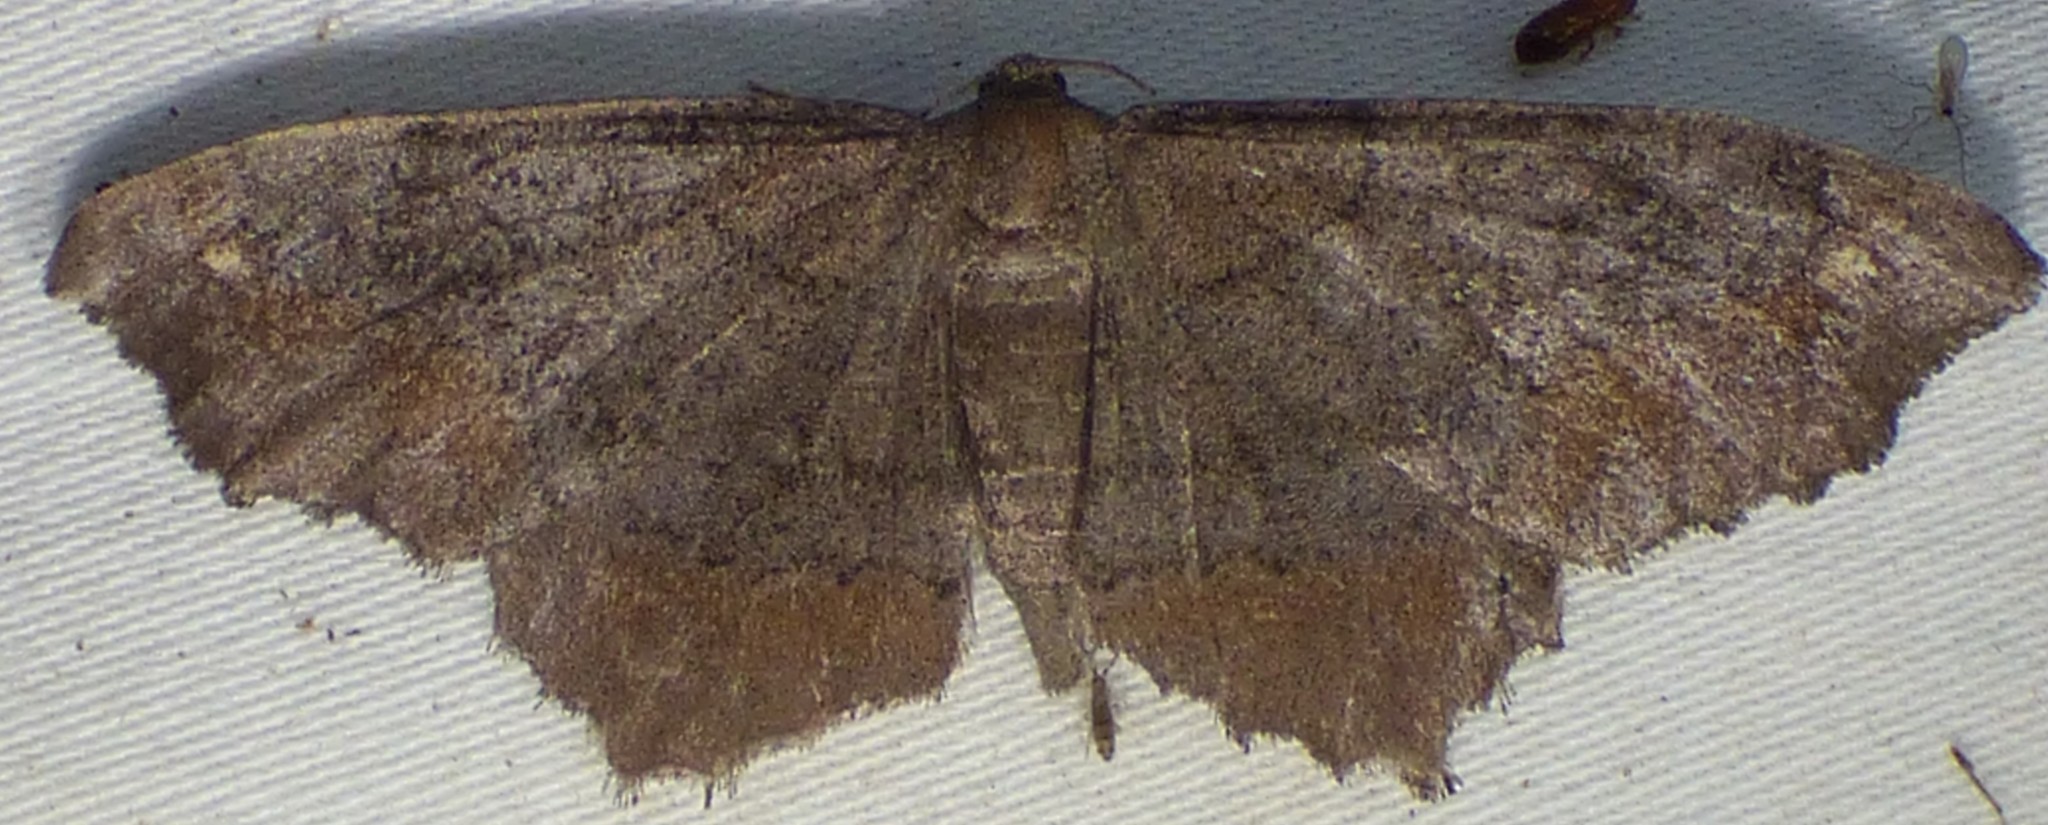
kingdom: Animalia
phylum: Arthropoda
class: Insecta
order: Lepidoptera
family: Geometridae
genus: Hypagyrtis
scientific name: Hypagyrtis esther
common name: Esther moth
